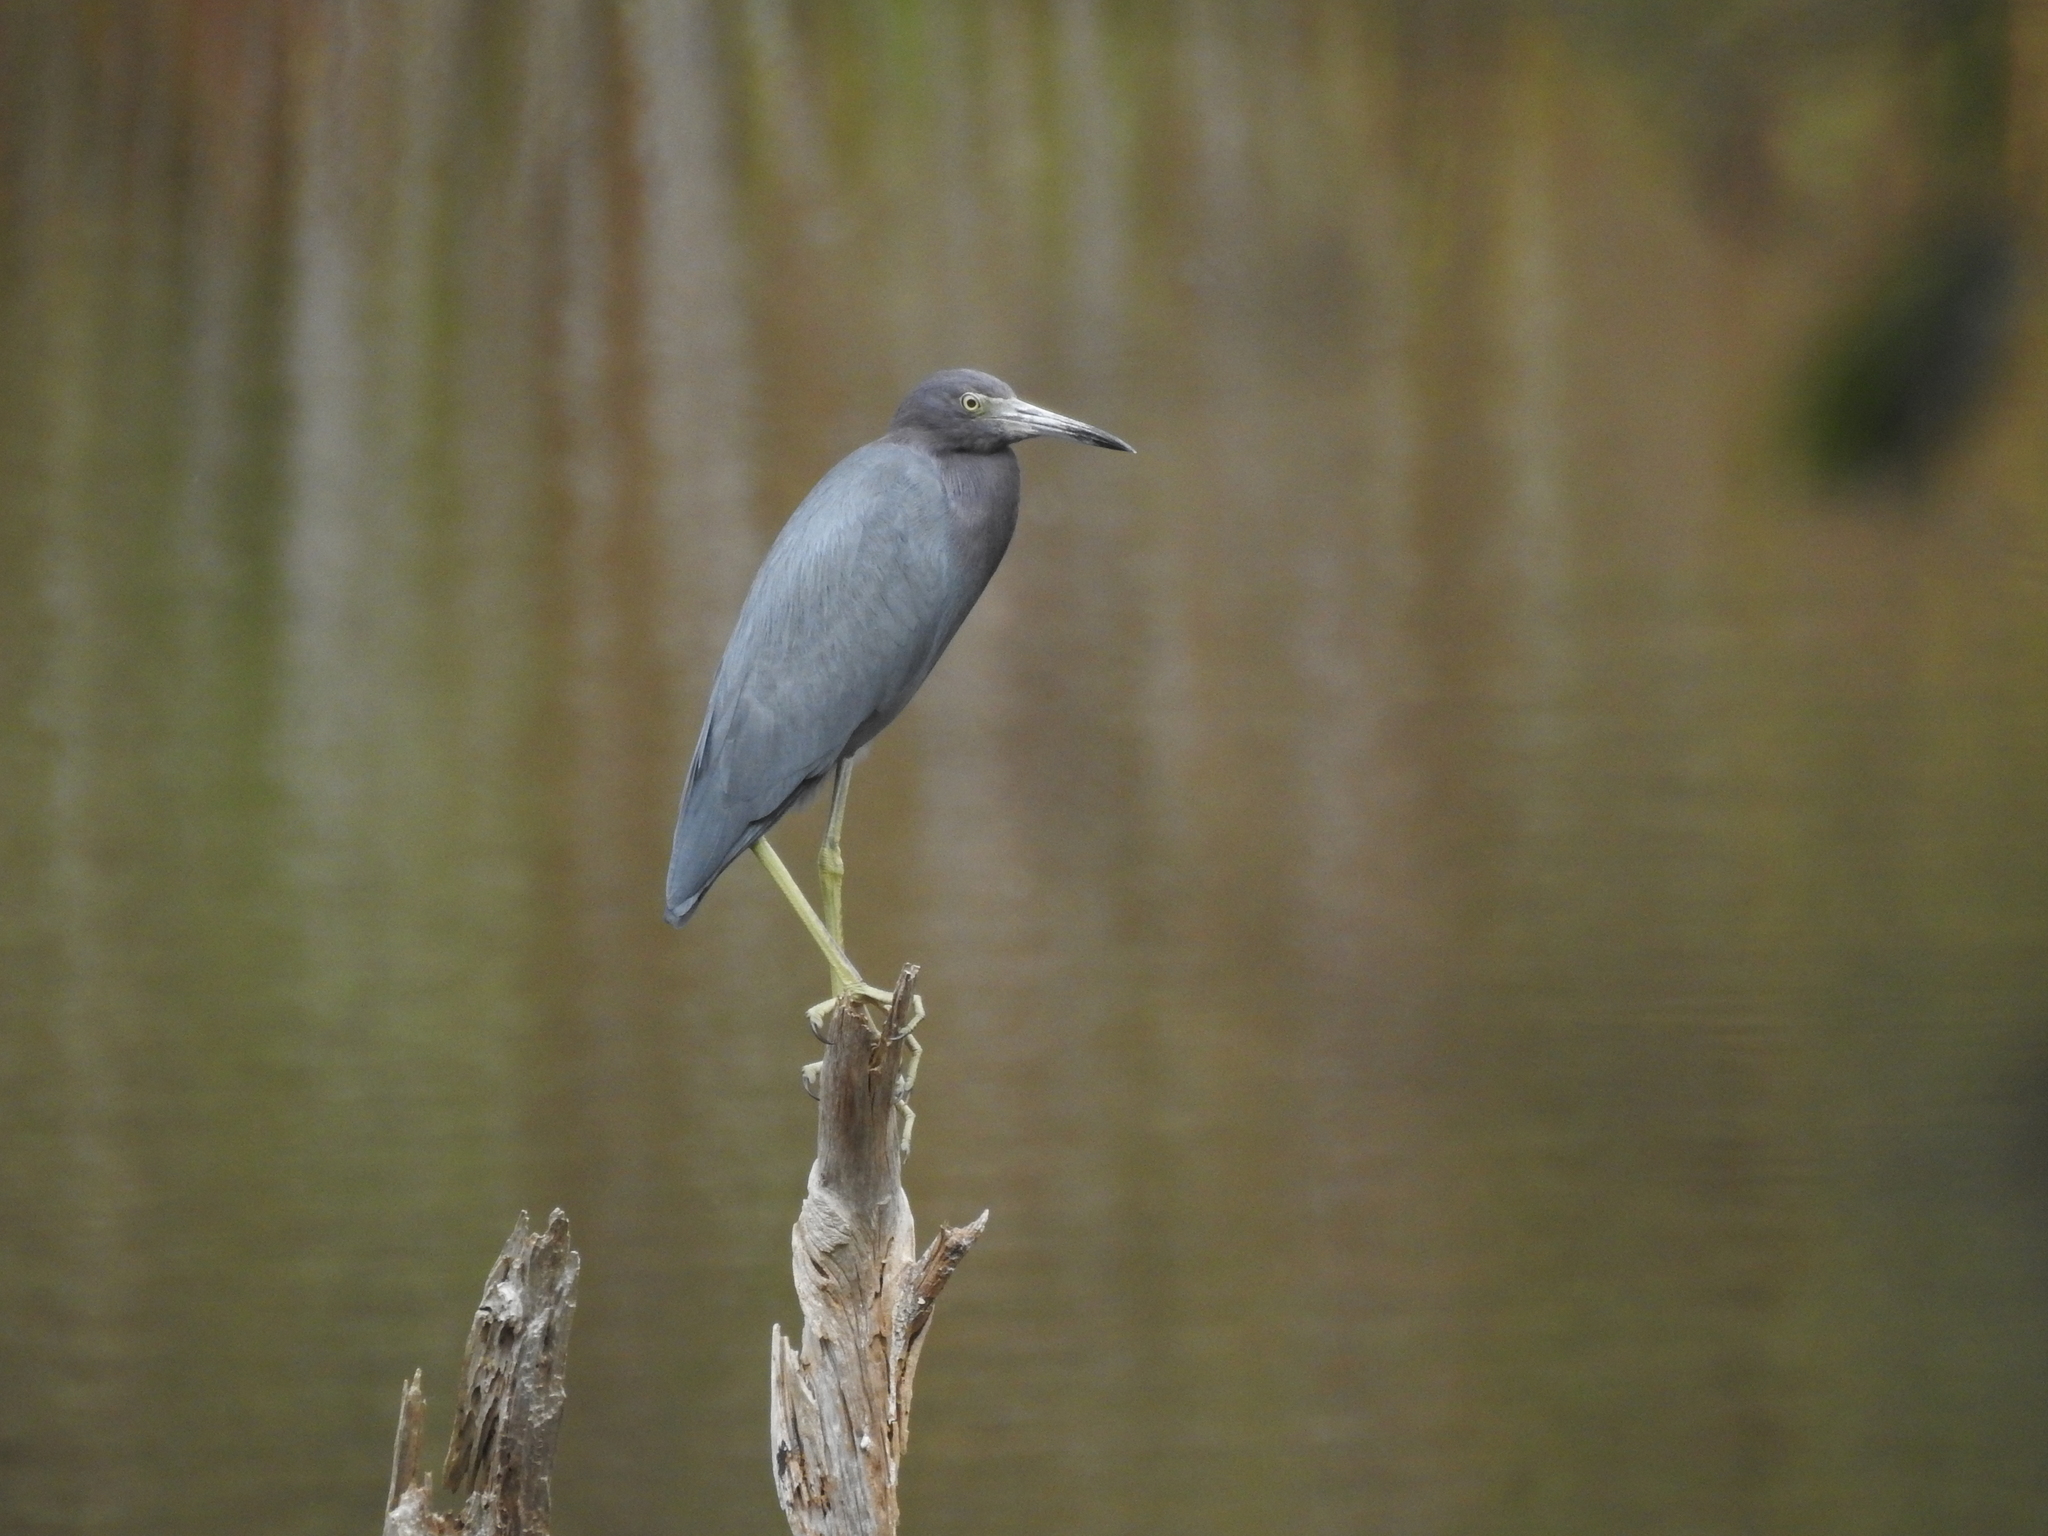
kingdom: Animalia
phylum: Chordata
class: Aves
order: Pelecaniformes
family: Ardeidae
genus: Egretta
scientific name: Egretta caerulea
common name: Little blue heron
